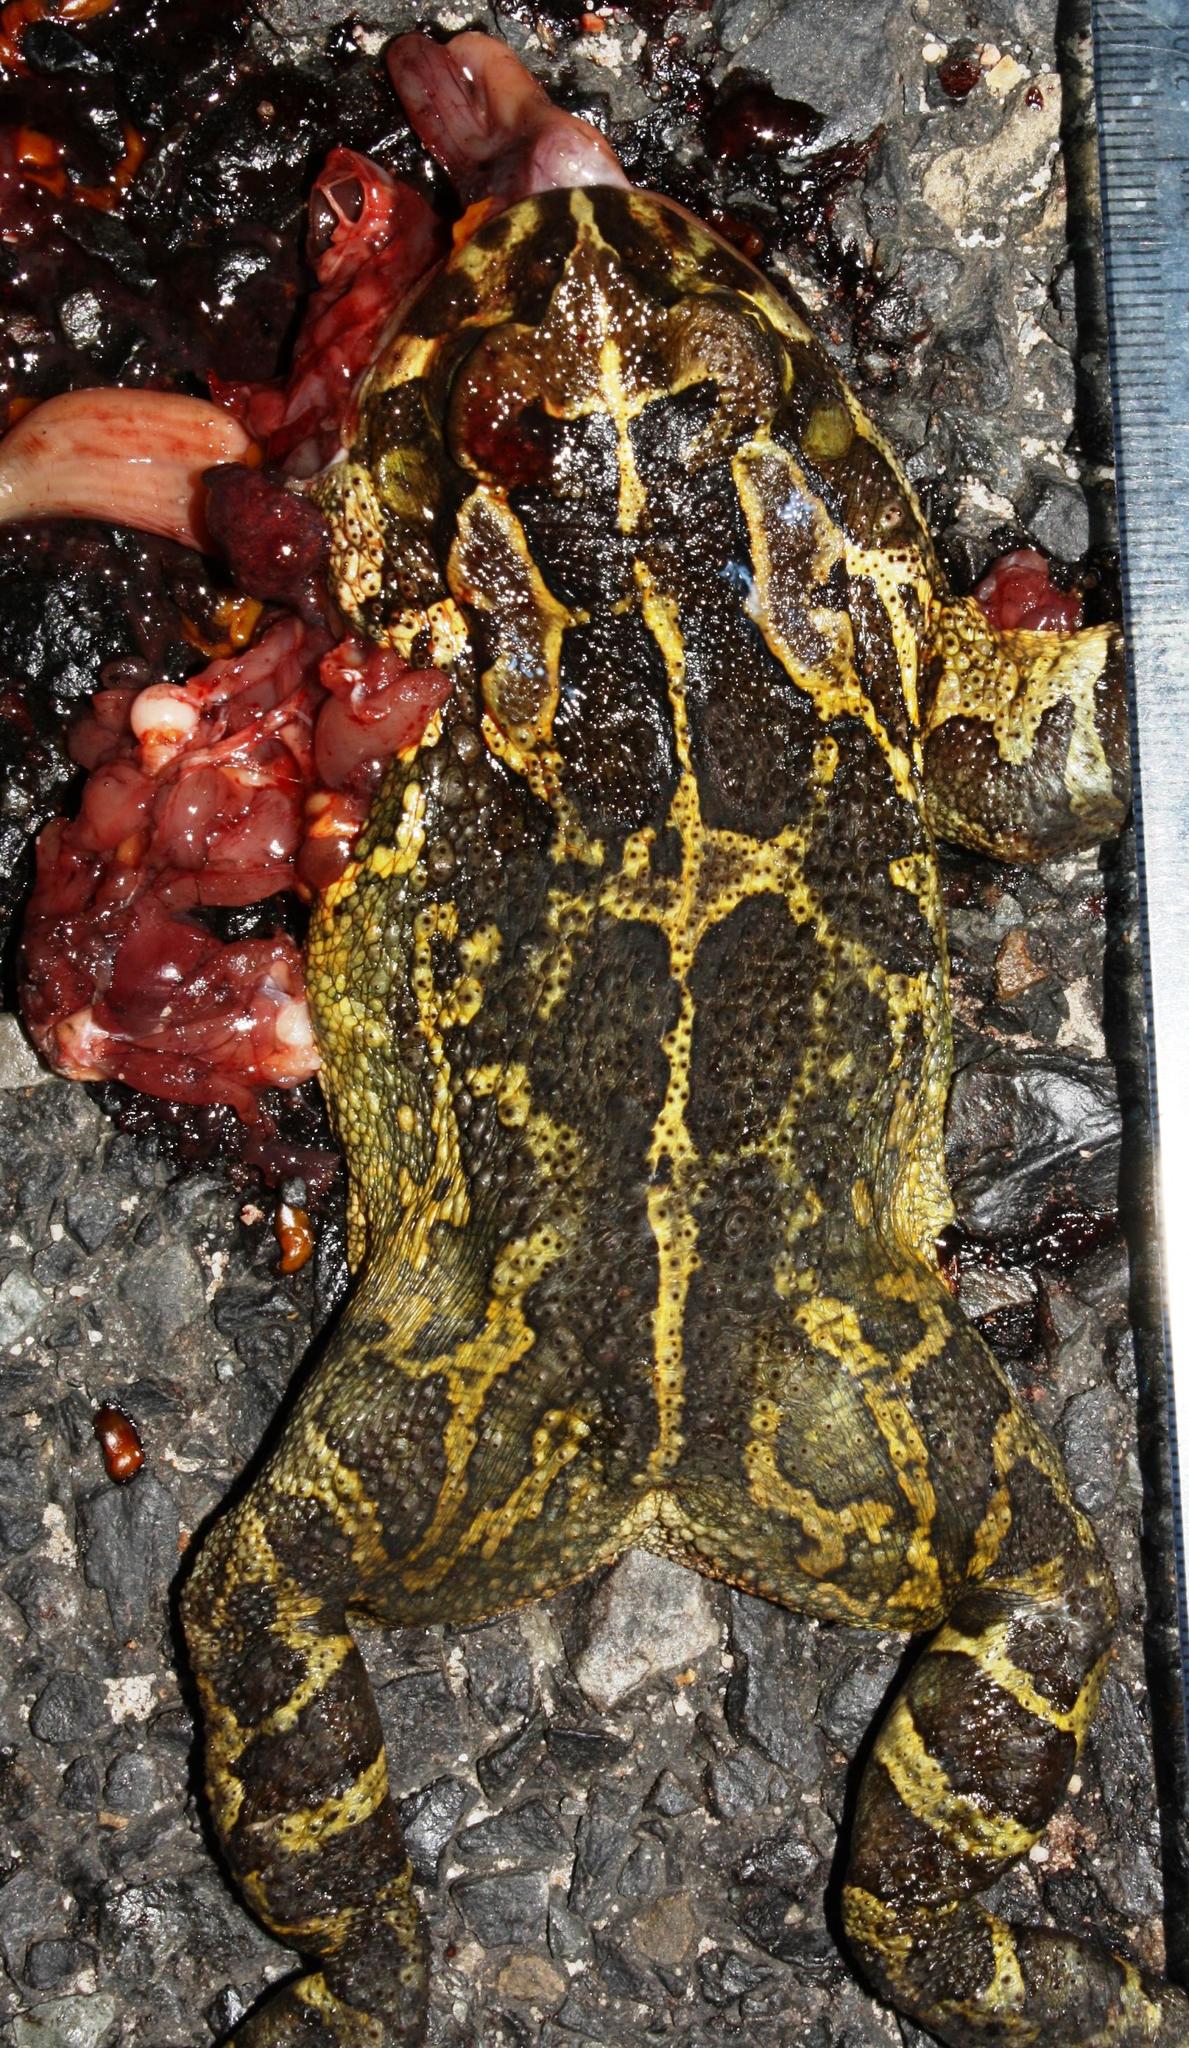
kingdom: Animalia
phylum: Chordata
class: Amphibia
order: Anura
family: Bufonidae
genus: Sclerophrys
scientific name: Sclerophrys pantherina
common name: Panther toad
